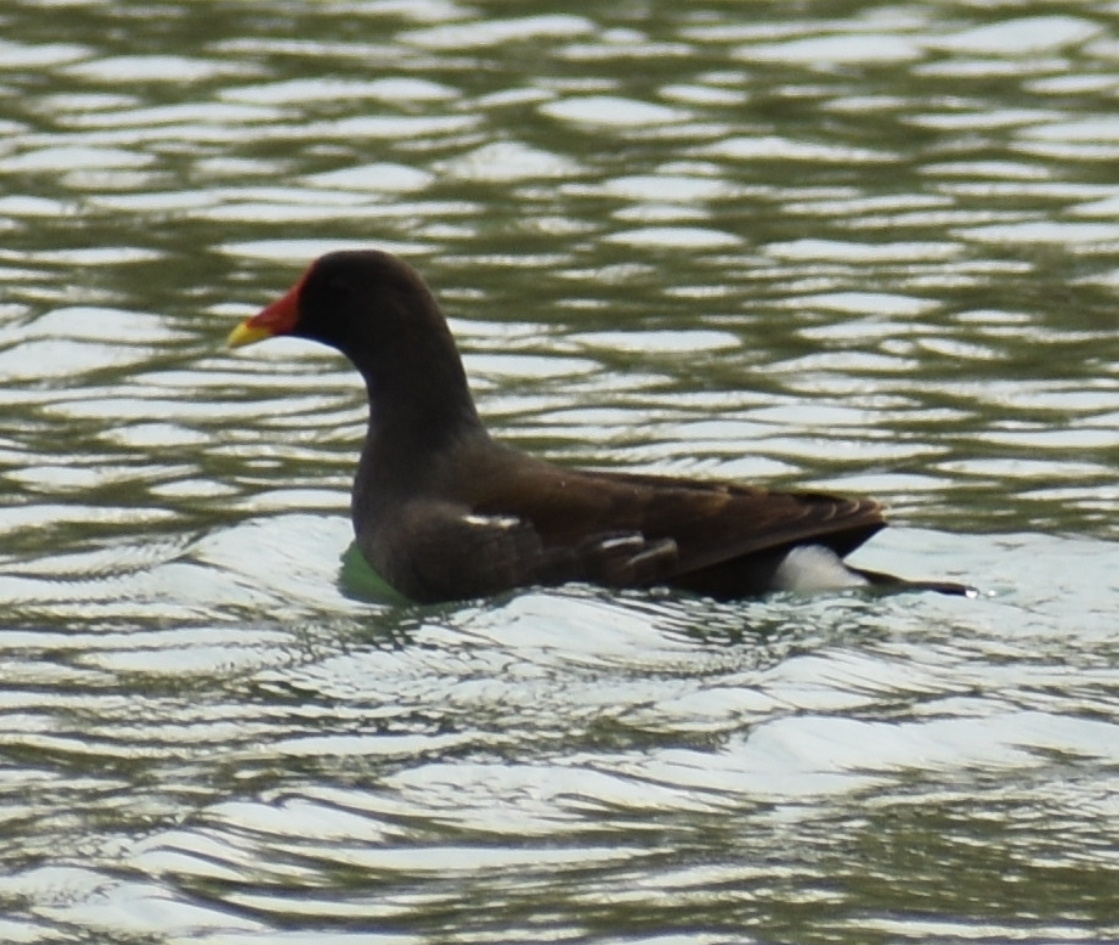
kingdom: Animalia
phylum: Chordata
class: Aves
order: Gruiformes
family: Rallidae
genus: Gallinula
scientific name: Gallinula chloropus
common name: Common moorhen
